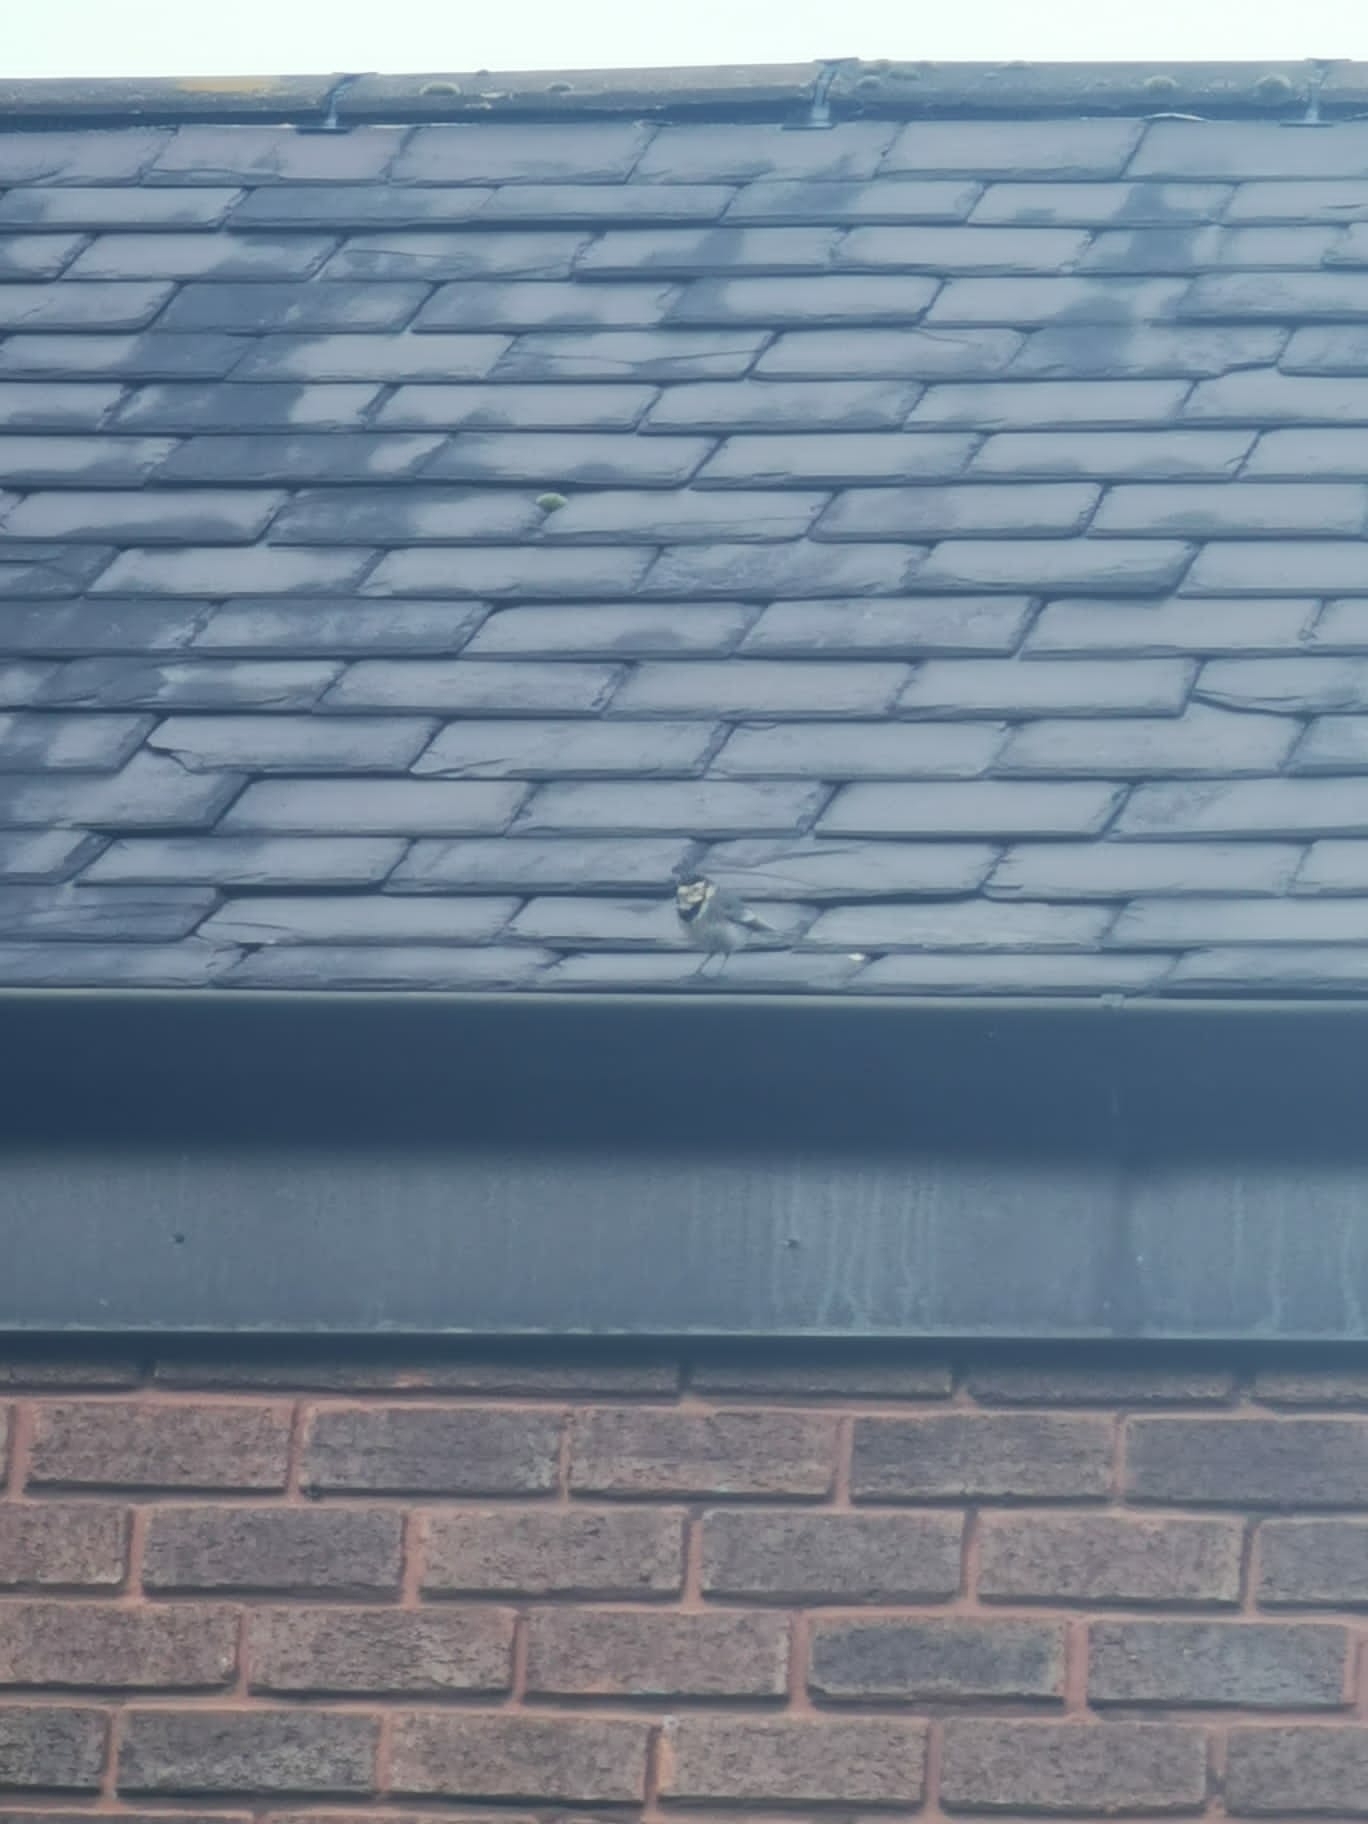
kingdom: Animalia
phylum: Chordata
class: Aves
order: Passeriformes
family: Motacillidae
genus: Motacilla
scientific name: Motacilla alba
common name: White wagtail
